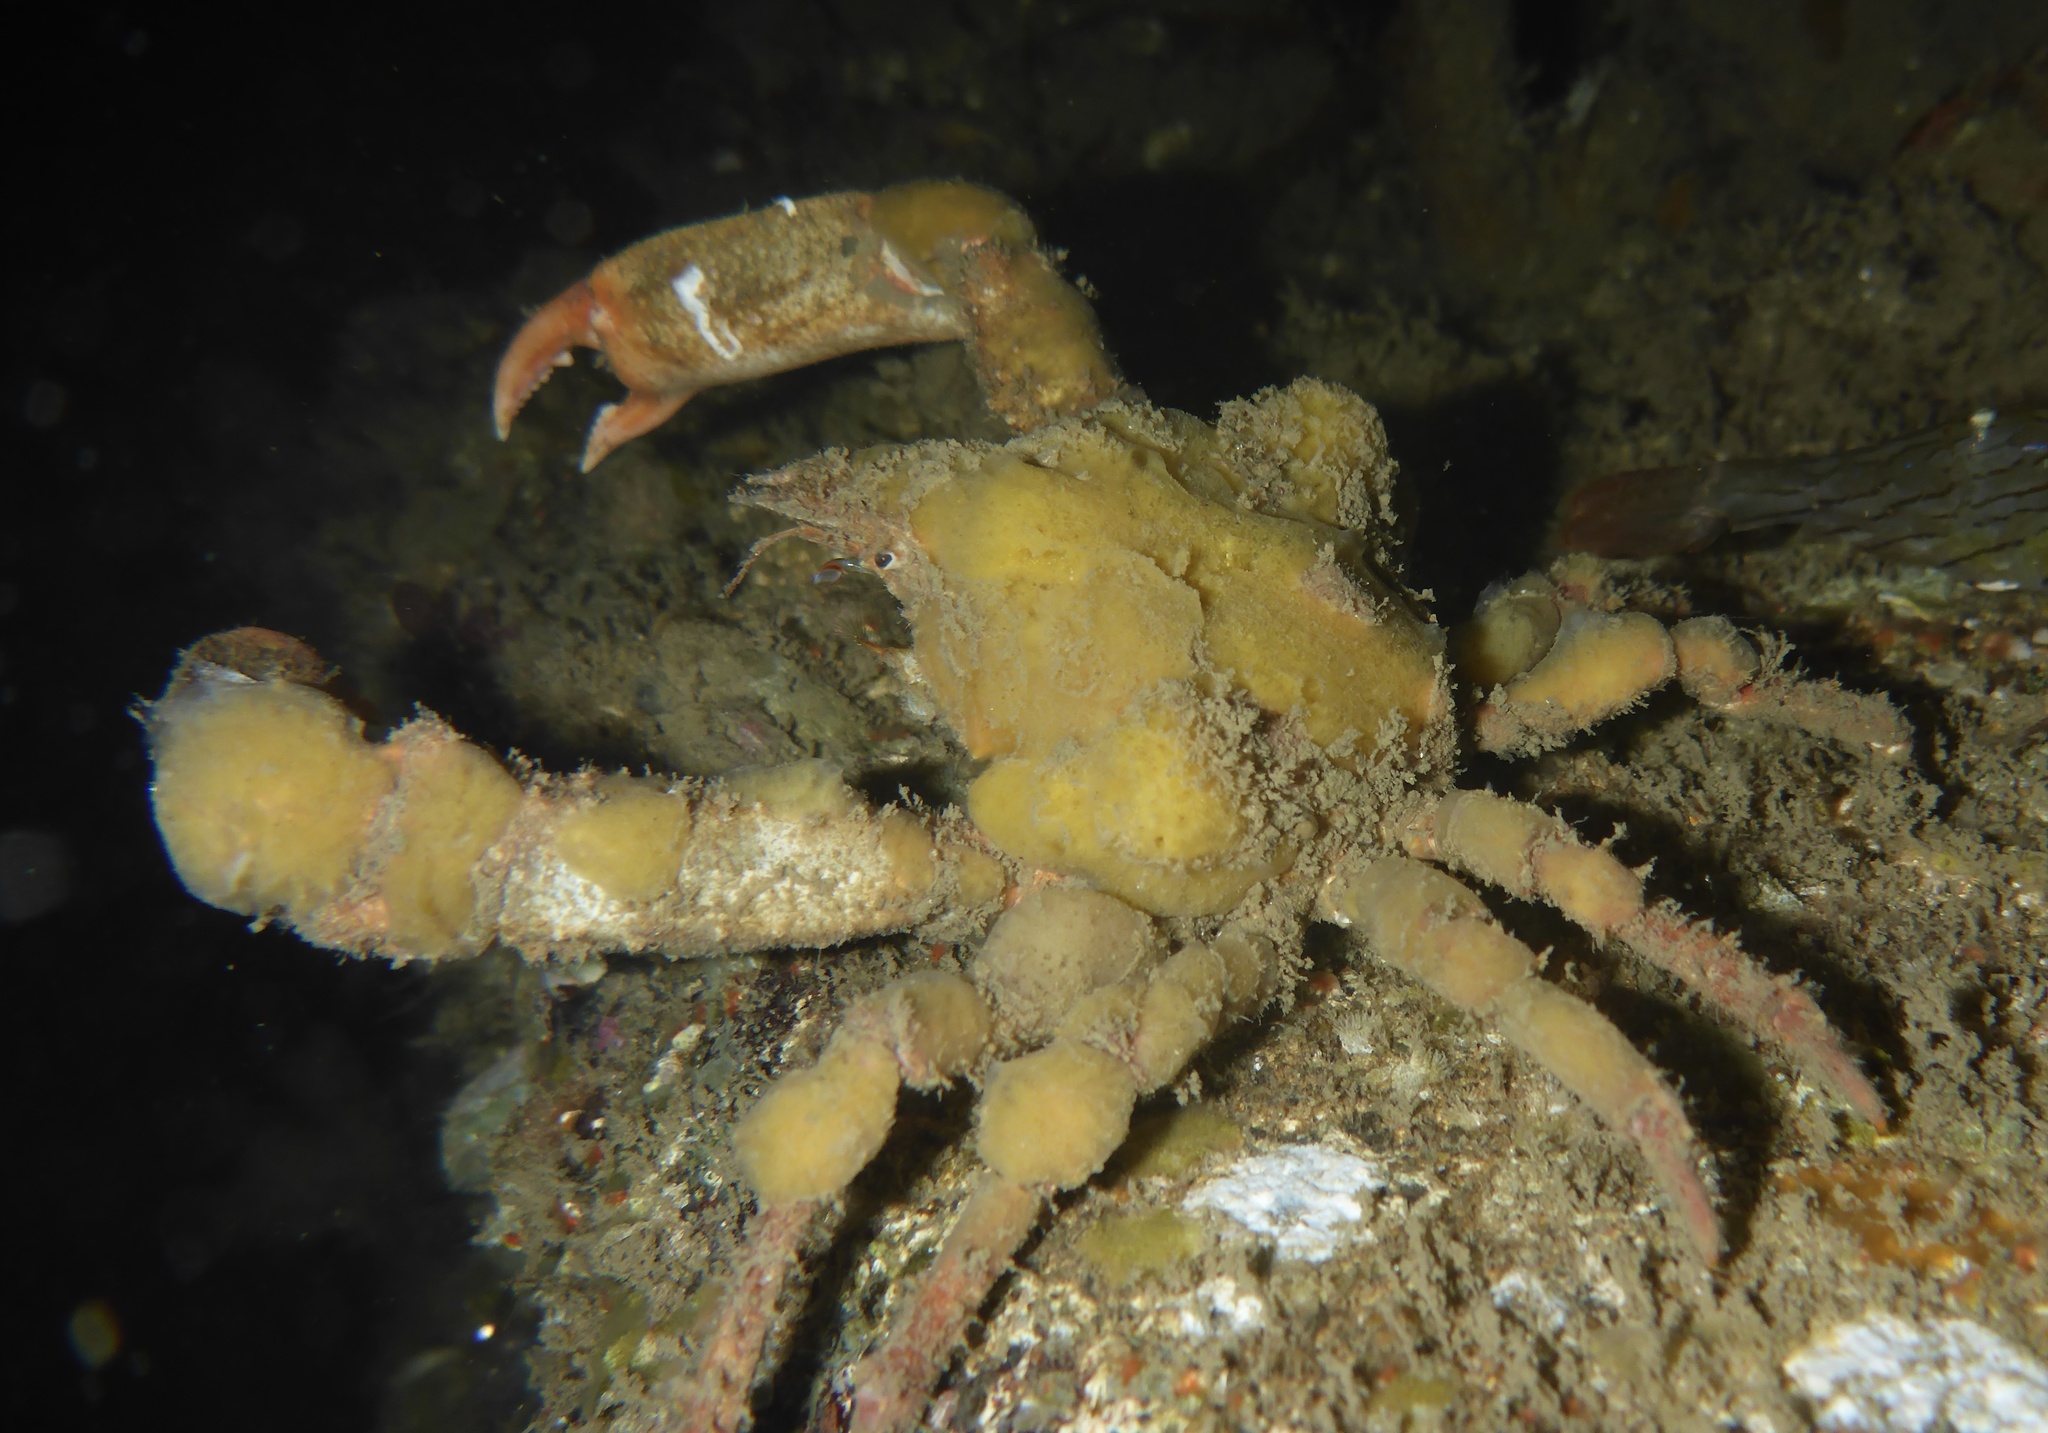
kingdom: Animalia
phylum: Arthropoda
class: Malacostraca
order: Decapoda
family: Epialtidae
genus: Scyra
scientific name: Scyra acutifrons
